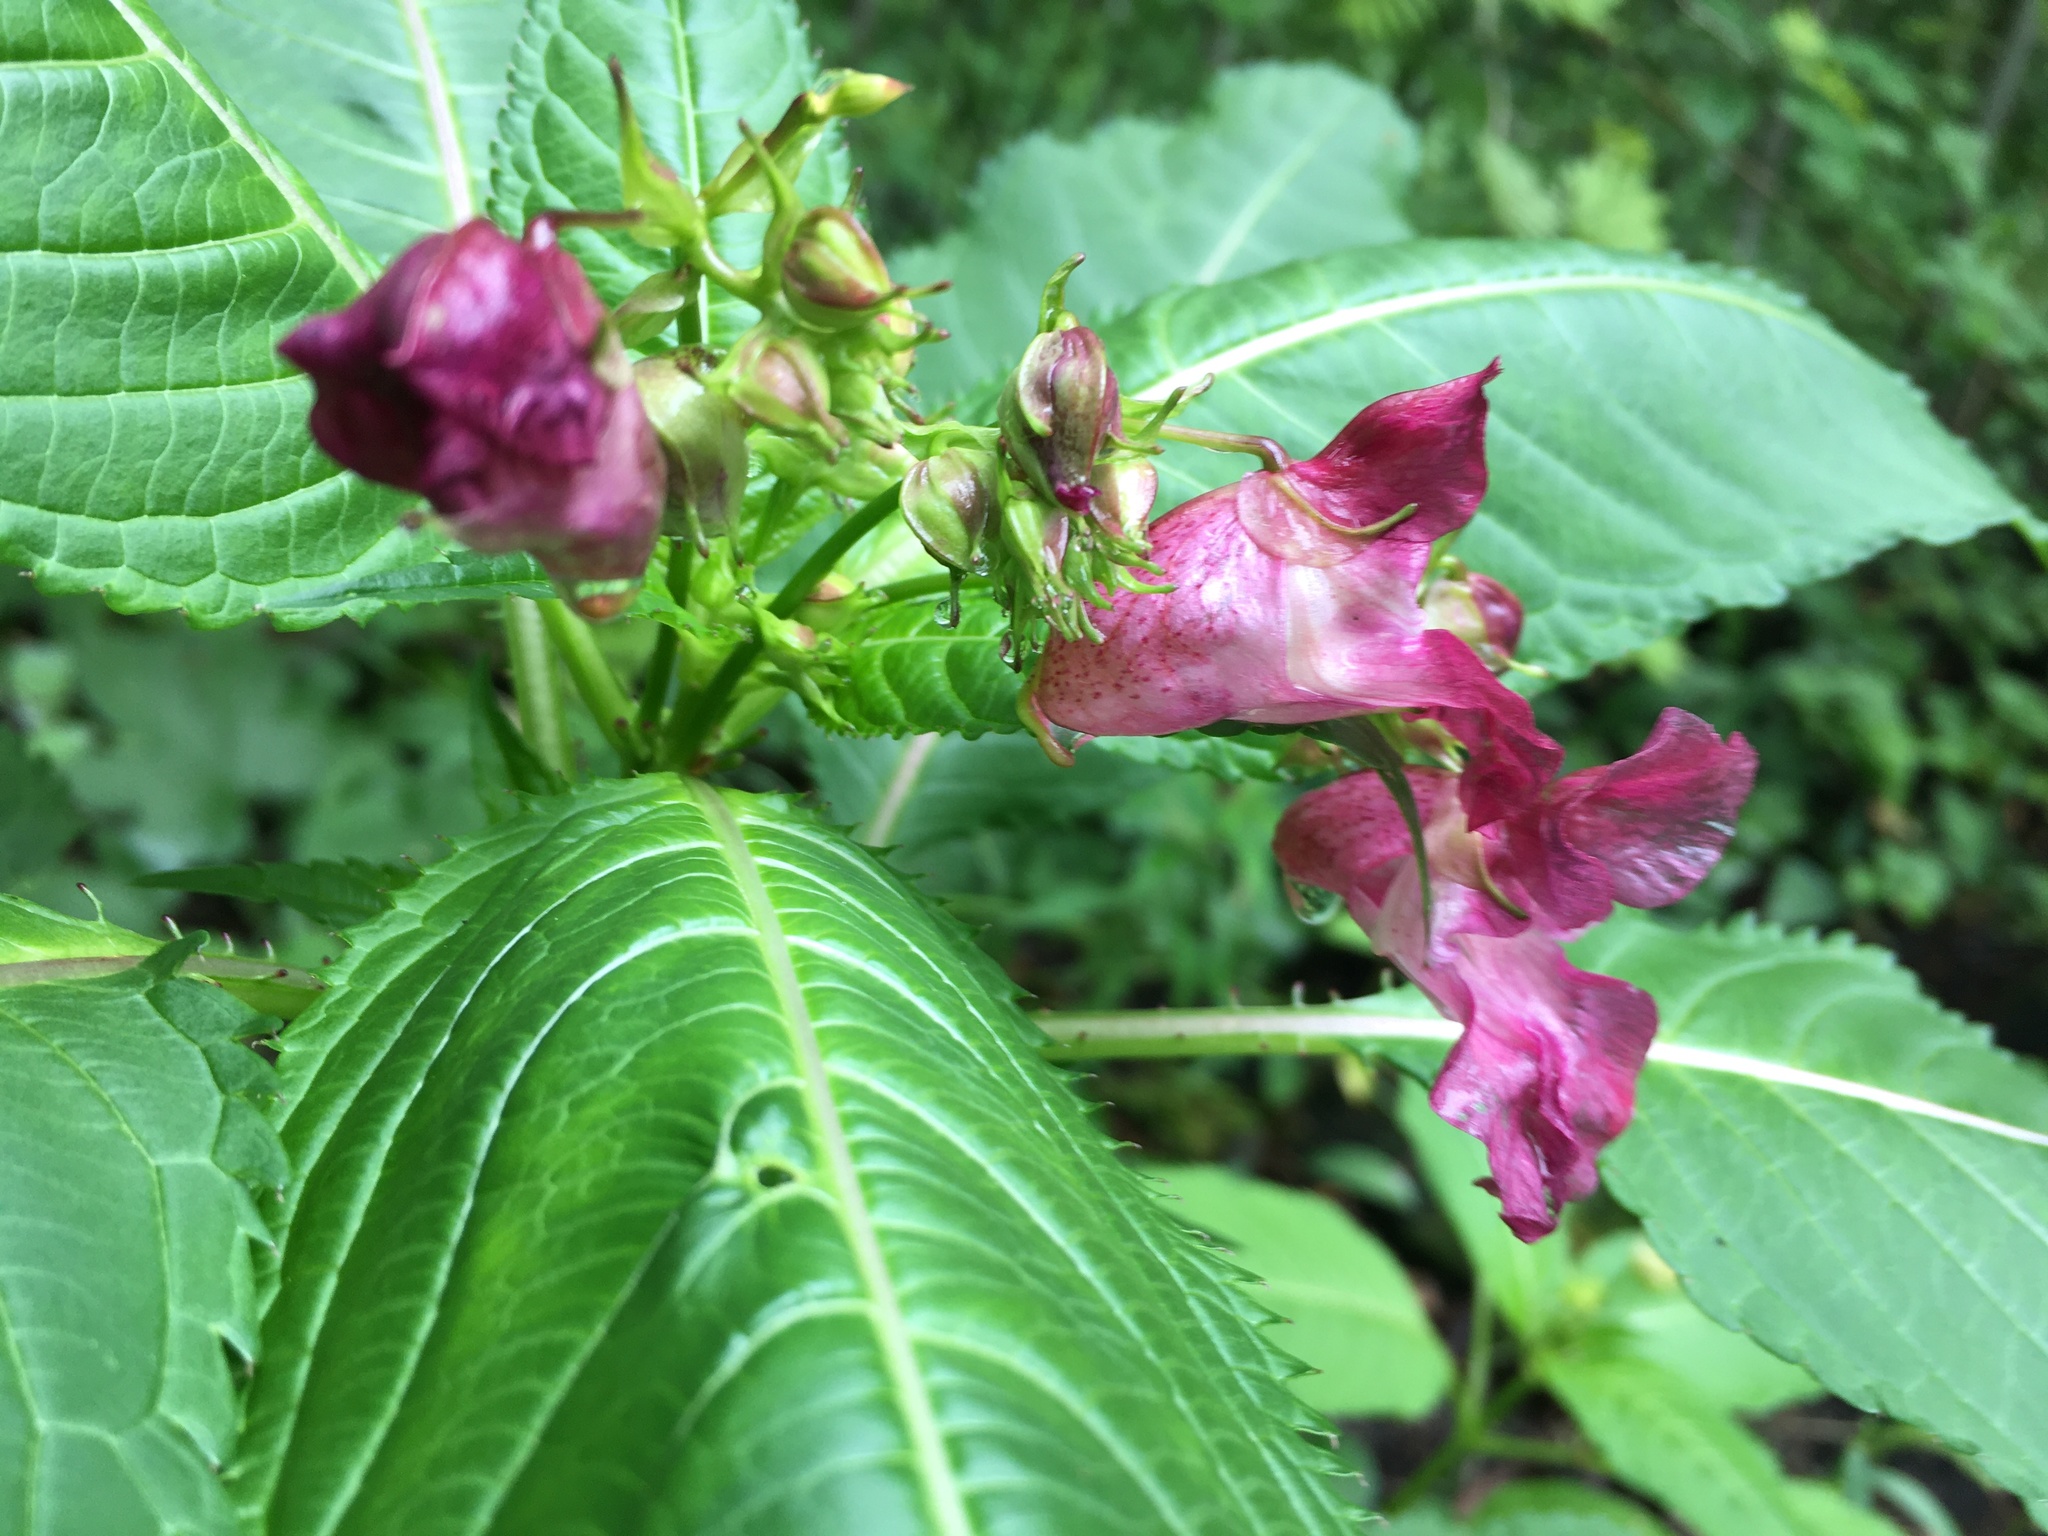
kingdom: Plantae
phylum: Tracheophyta
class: Magnoliopsida
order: Ericales
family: Balsaminaceae
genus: Impatiens
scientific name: Impatiens glandulifera
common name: Himalayan balsam
